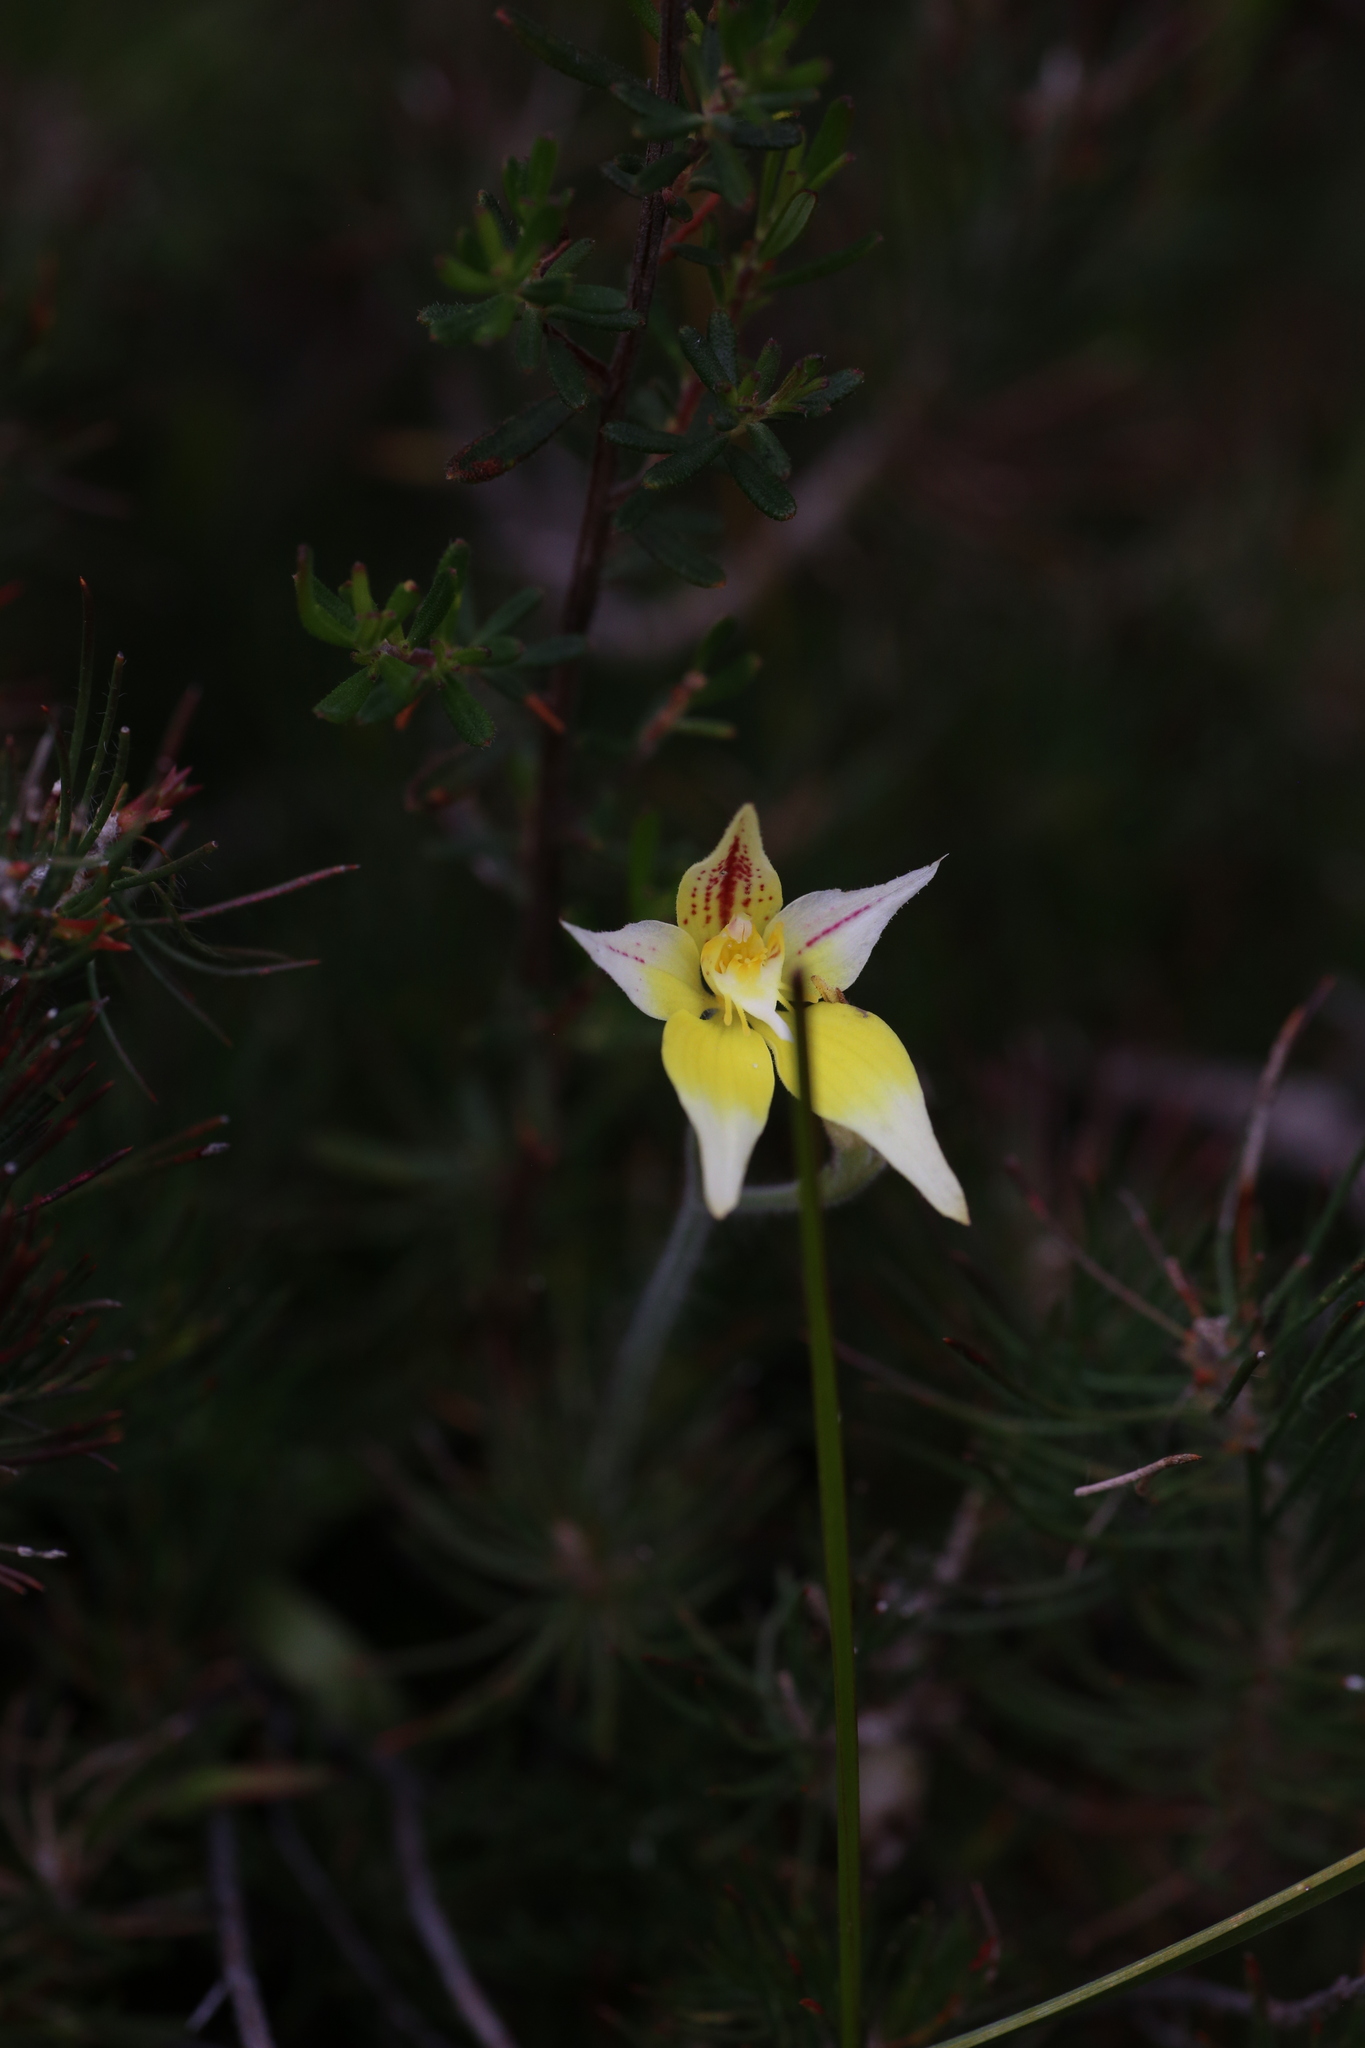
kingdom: Plantae
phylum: Tracheophyta
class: Liliopsida
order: Asparagales
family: Orchidaceae
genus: Caladenia
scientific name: Caladenia flava
